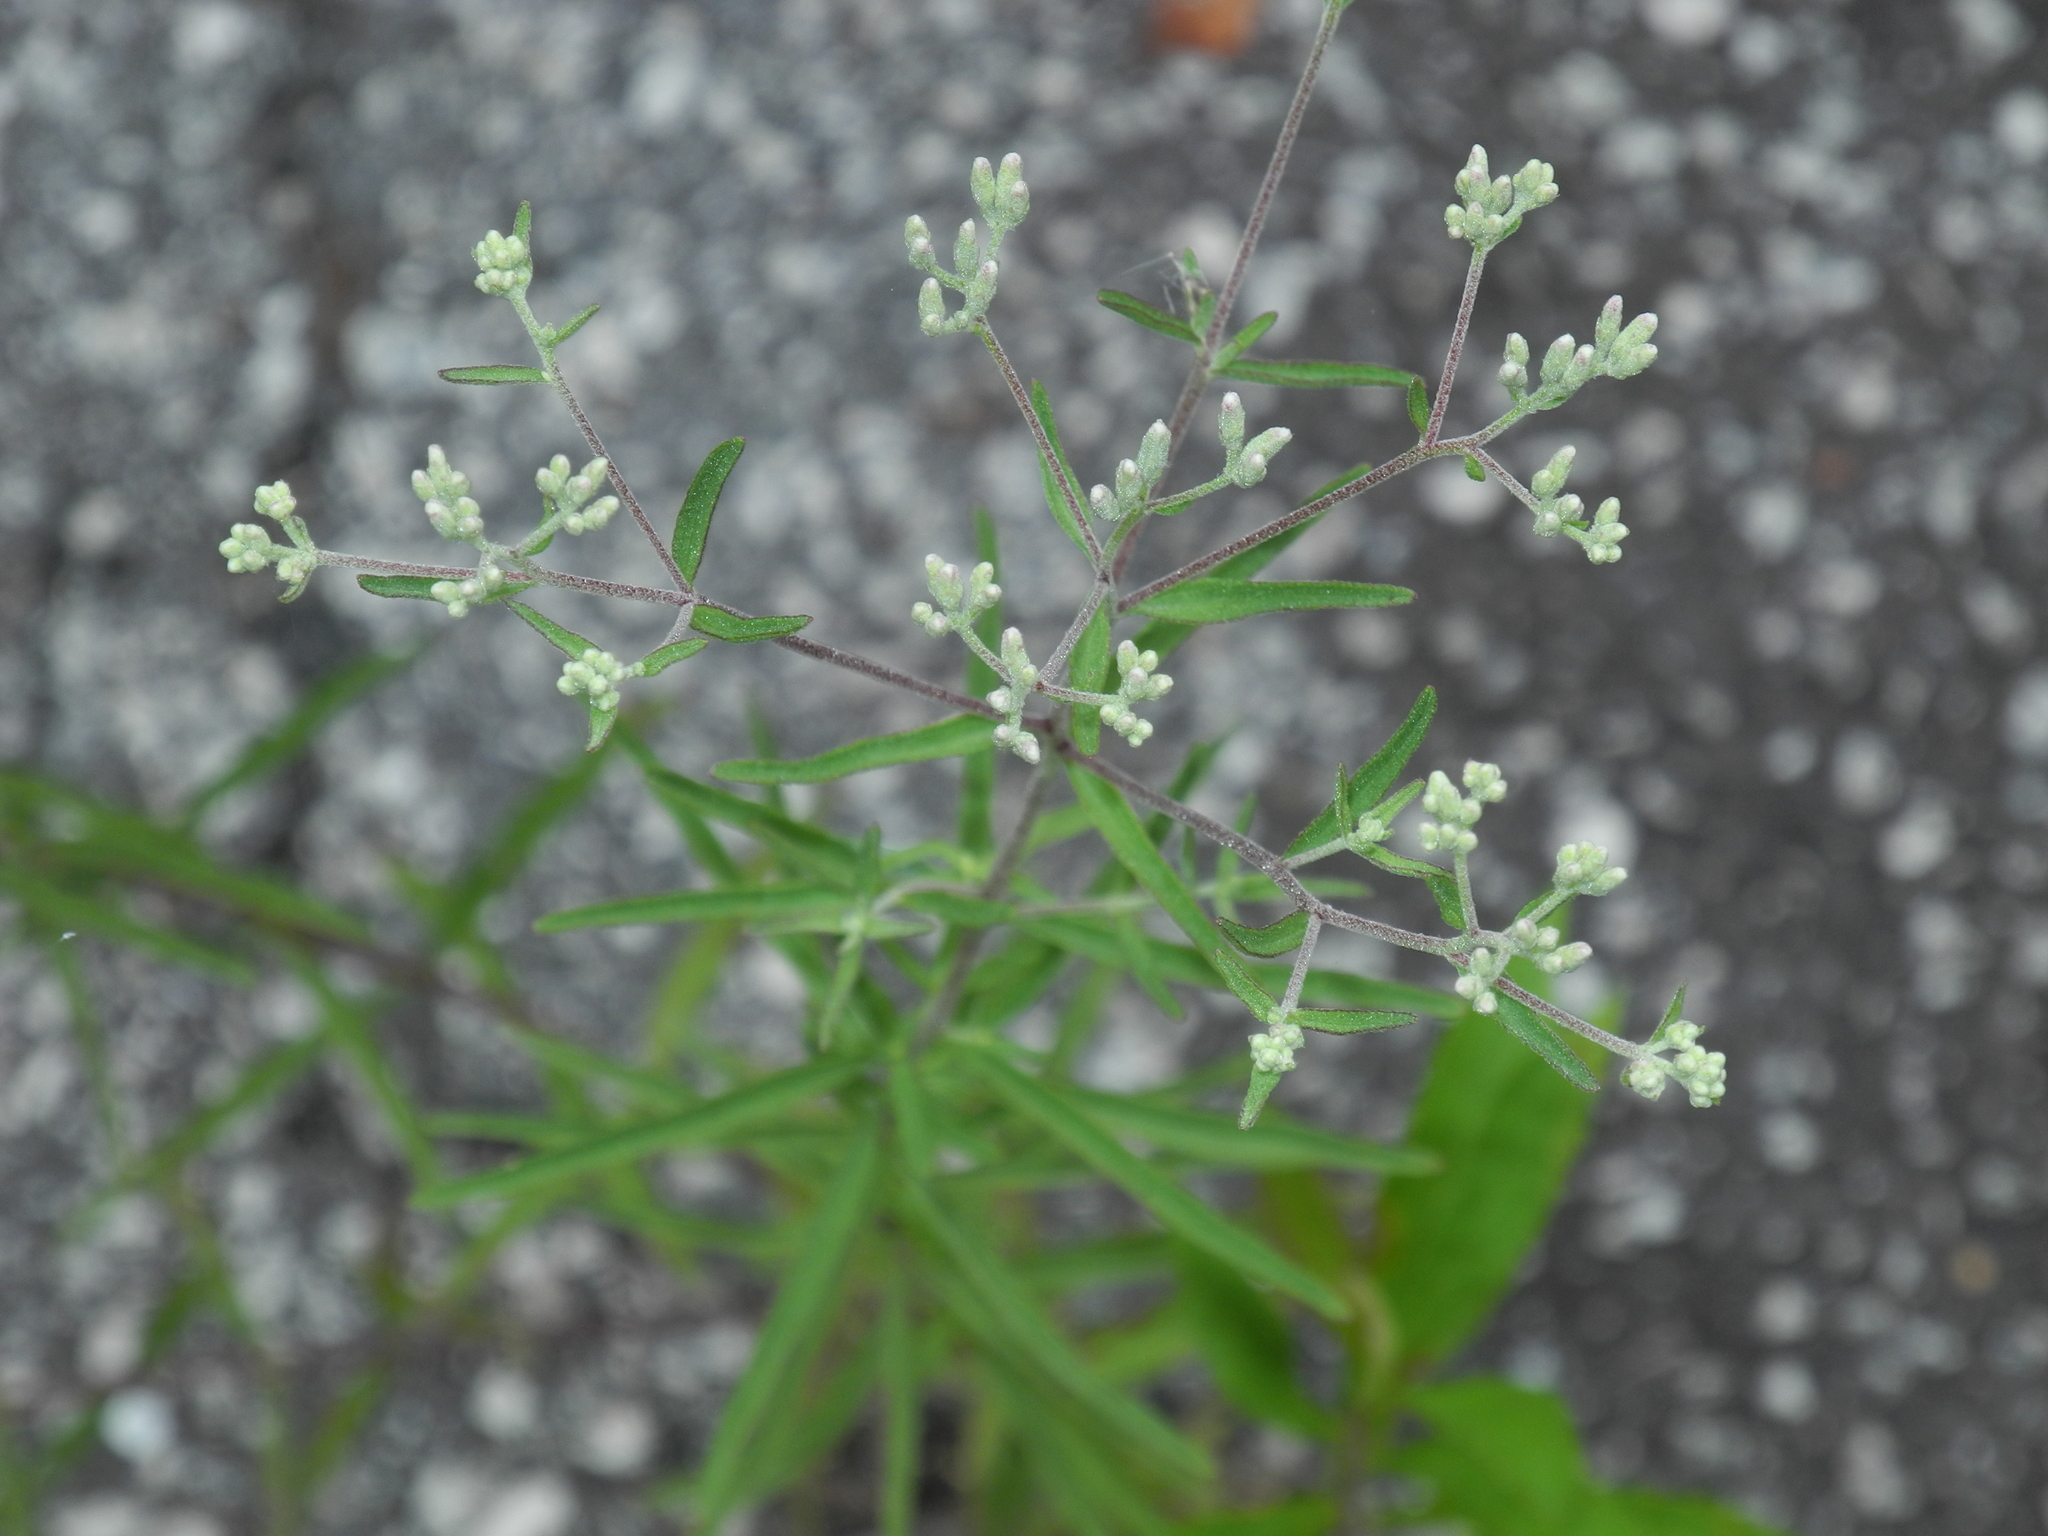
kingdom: Plantae
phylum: Tracheophyta
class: Magnoliopsida
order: Asterales
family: Asteraceae
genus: Eupatorium
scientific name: Eupatorium hyssopifolium
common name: Hyssop-leaf thoroughwort
